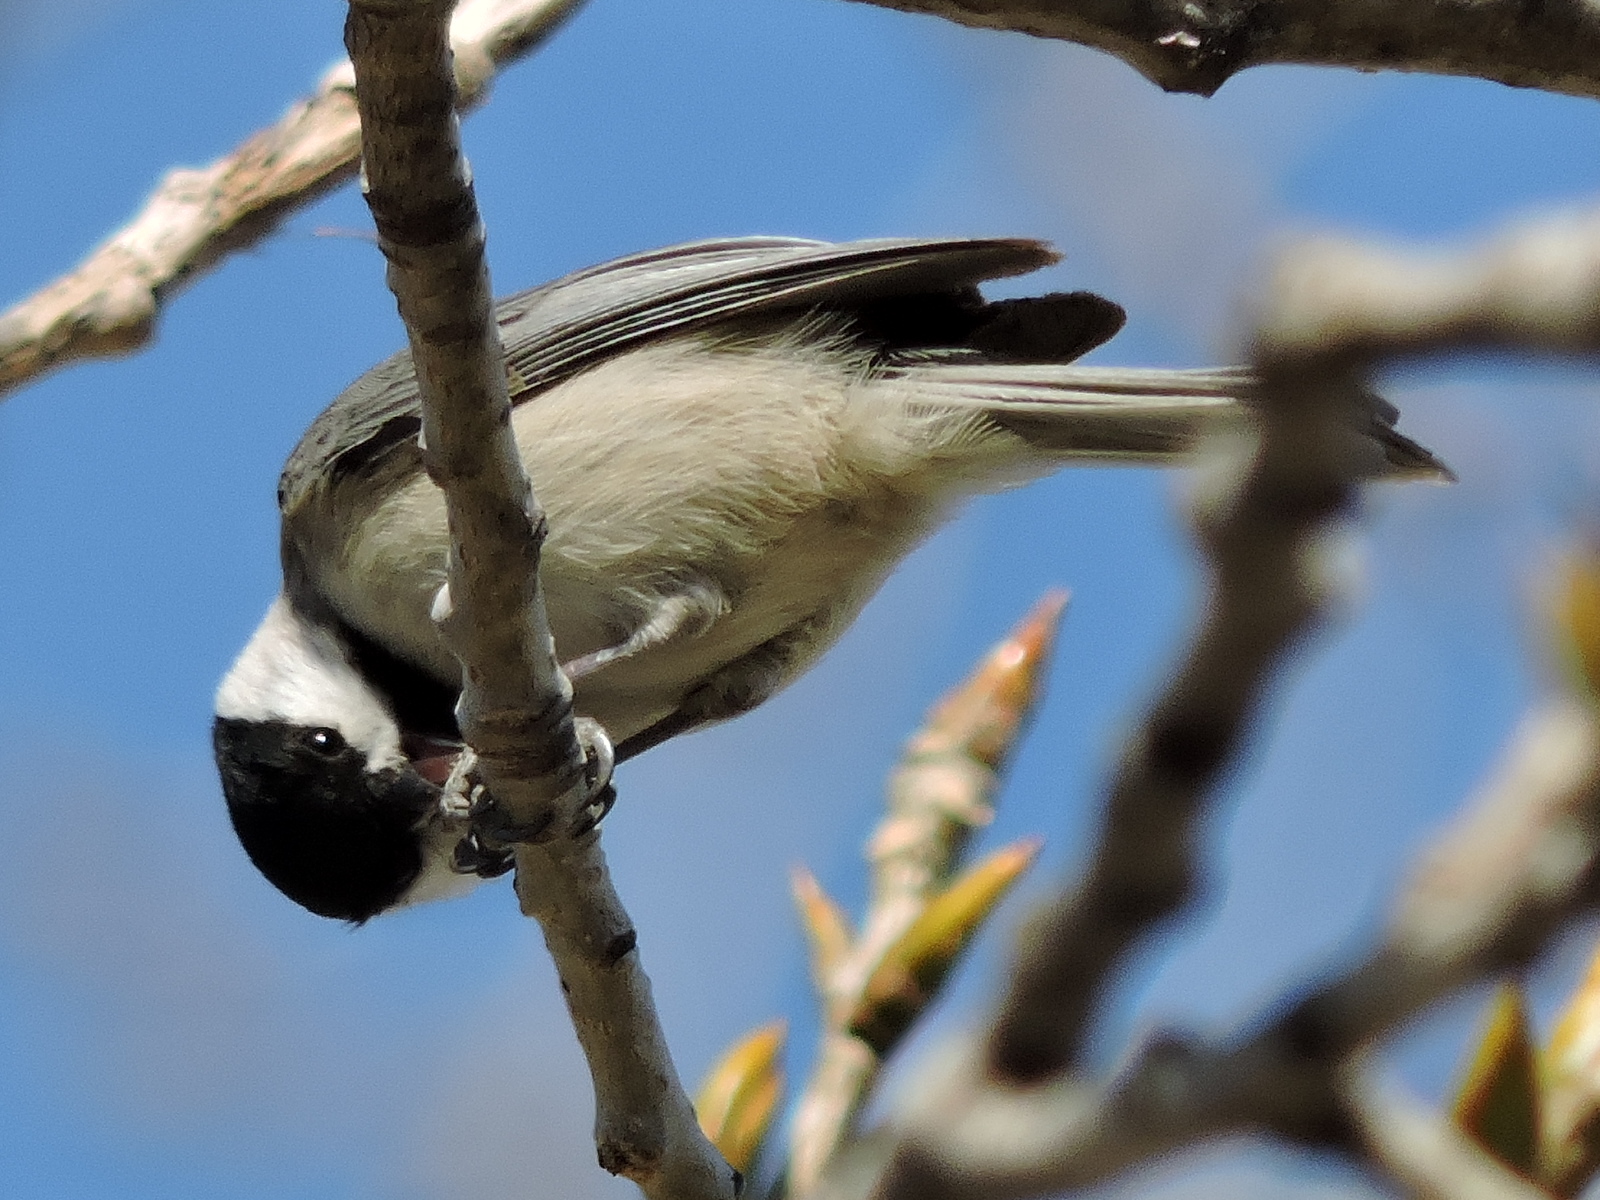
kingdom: Animalia
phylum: Chordata
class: Aves
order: Passeriformes
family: Paridae
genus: Poecile
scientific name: Poecile carolinensis
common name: Carolina chickadee
